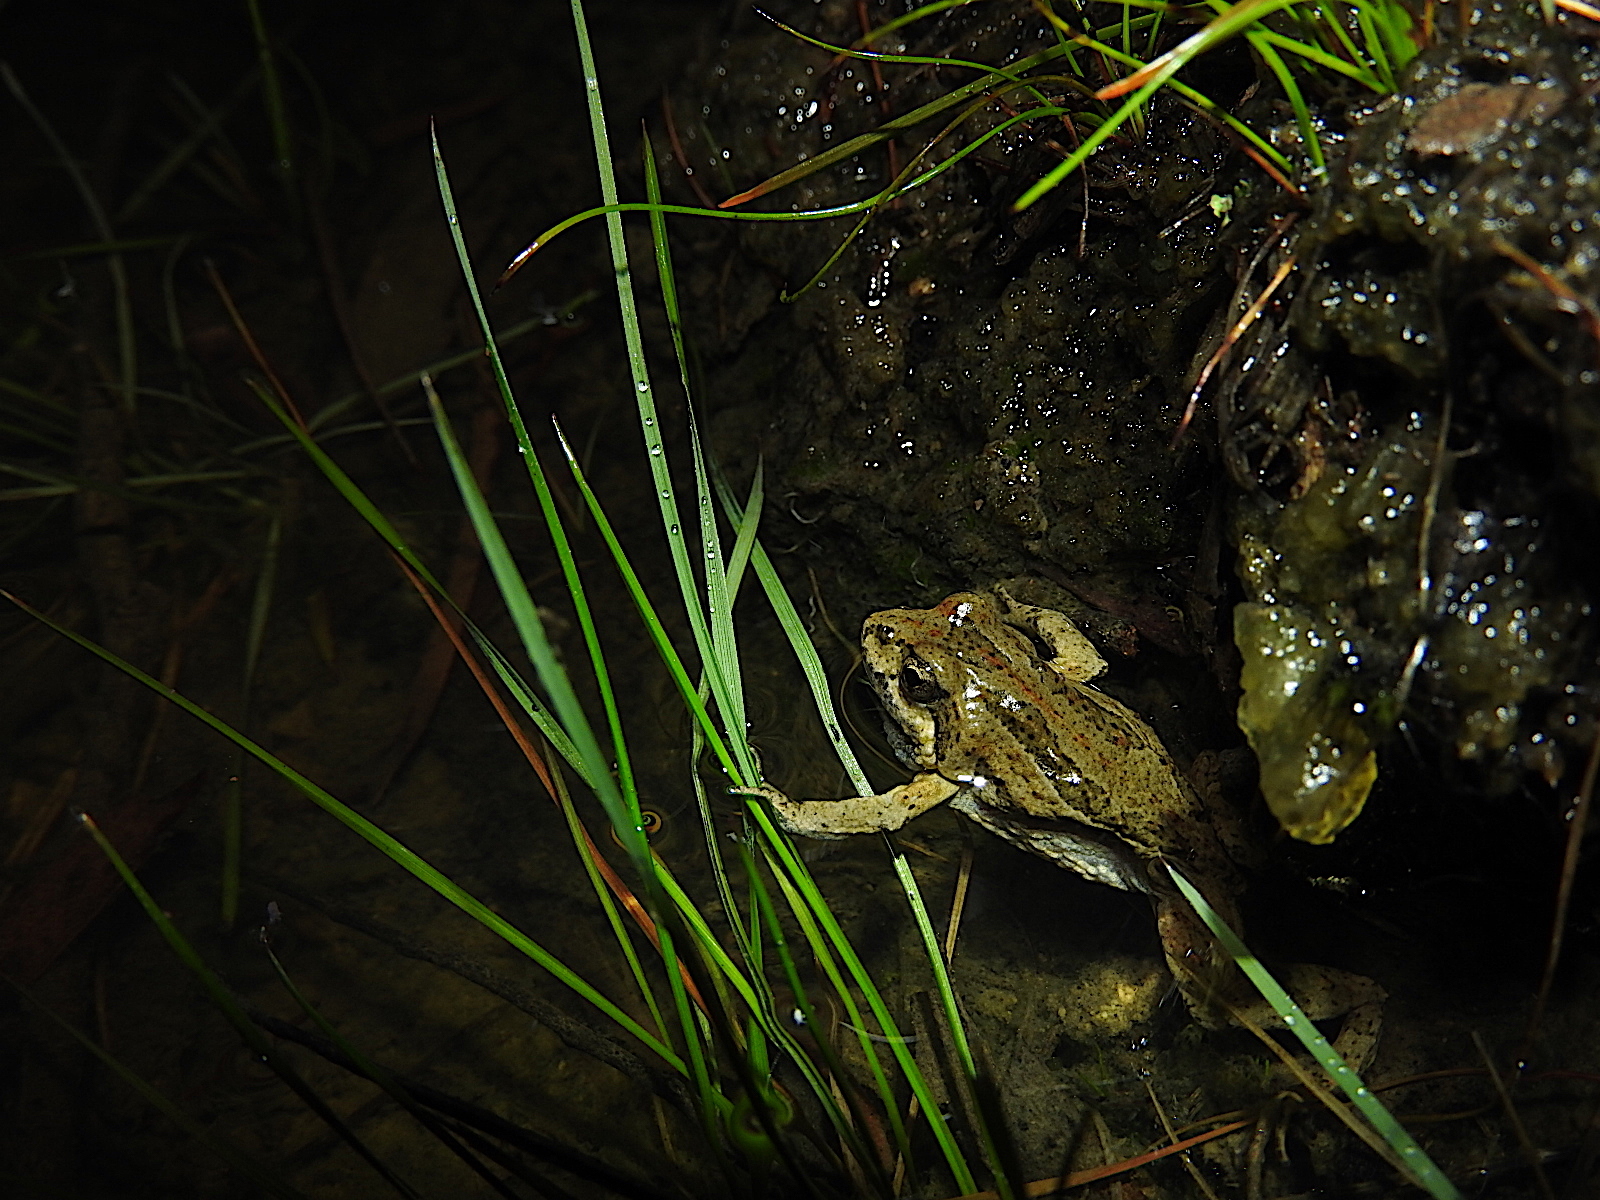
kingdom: Animalia
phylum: Chordata
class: Amphibia
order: Anura
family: Myobatrachidae
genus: Crinia
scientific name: Crinia signifera
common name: Brown froglet
